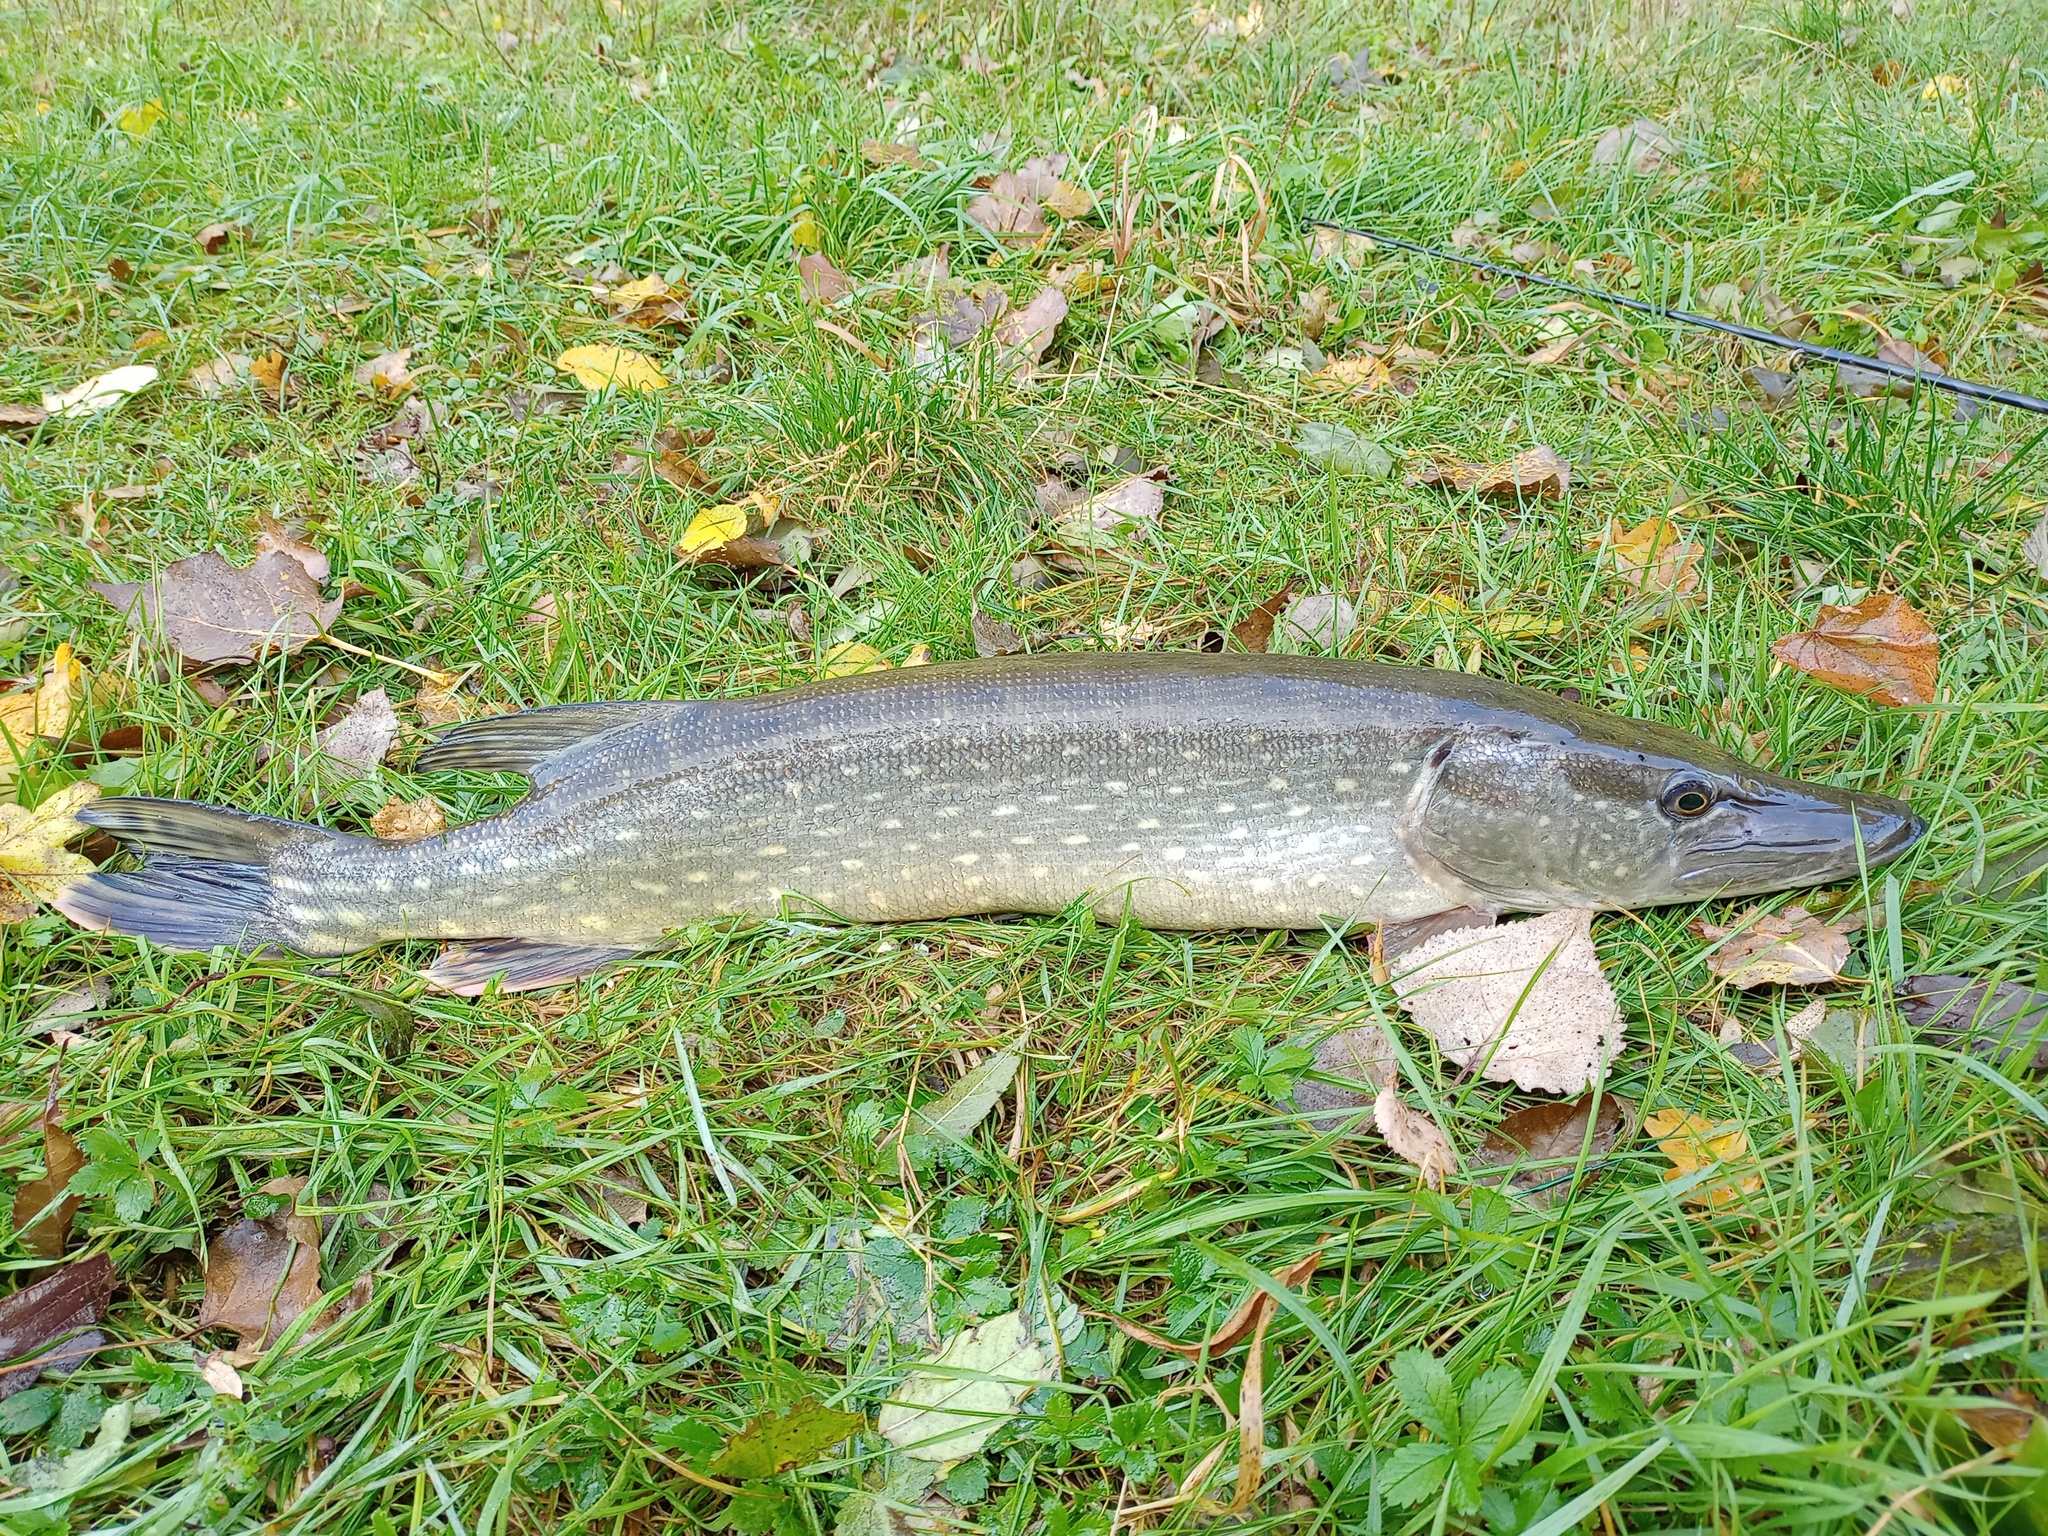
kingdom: Animalia
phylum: Chordata
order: Esociformes
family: Esocidae
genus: Esox
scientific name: Esox lucius
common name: Northern pike
